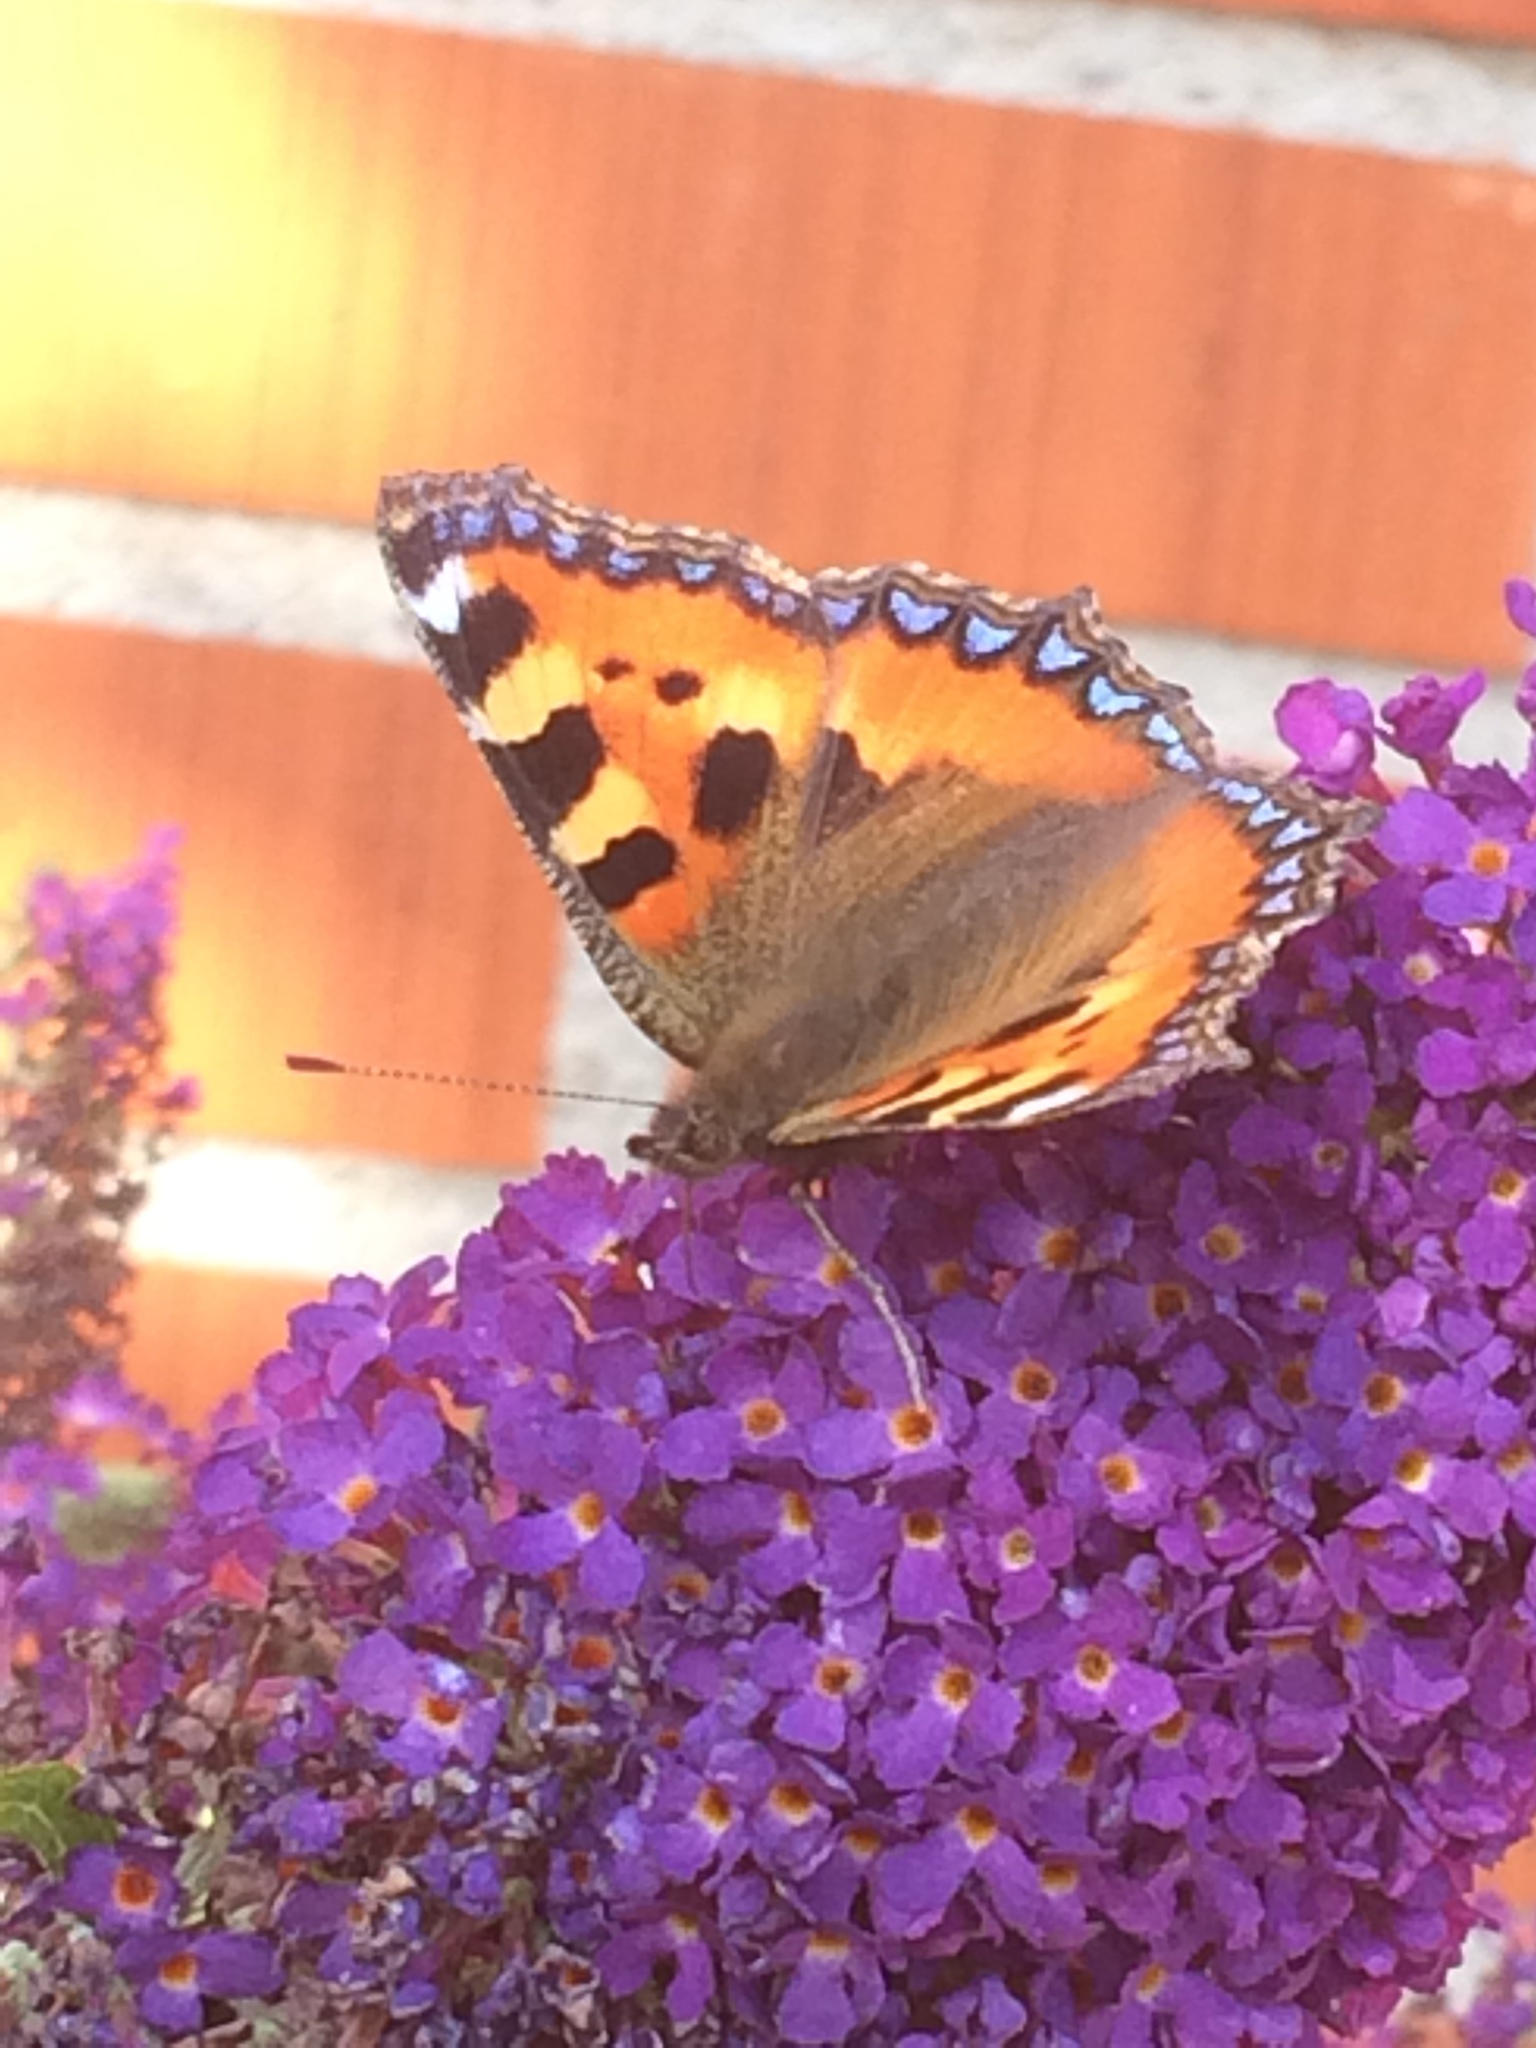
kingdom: Animalia
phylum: Arthropoda
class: Insecta
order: Lepidoptera
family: Nymphalidae
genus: Aglais
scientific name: Aglais urticae
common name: Small tortoiseshell
